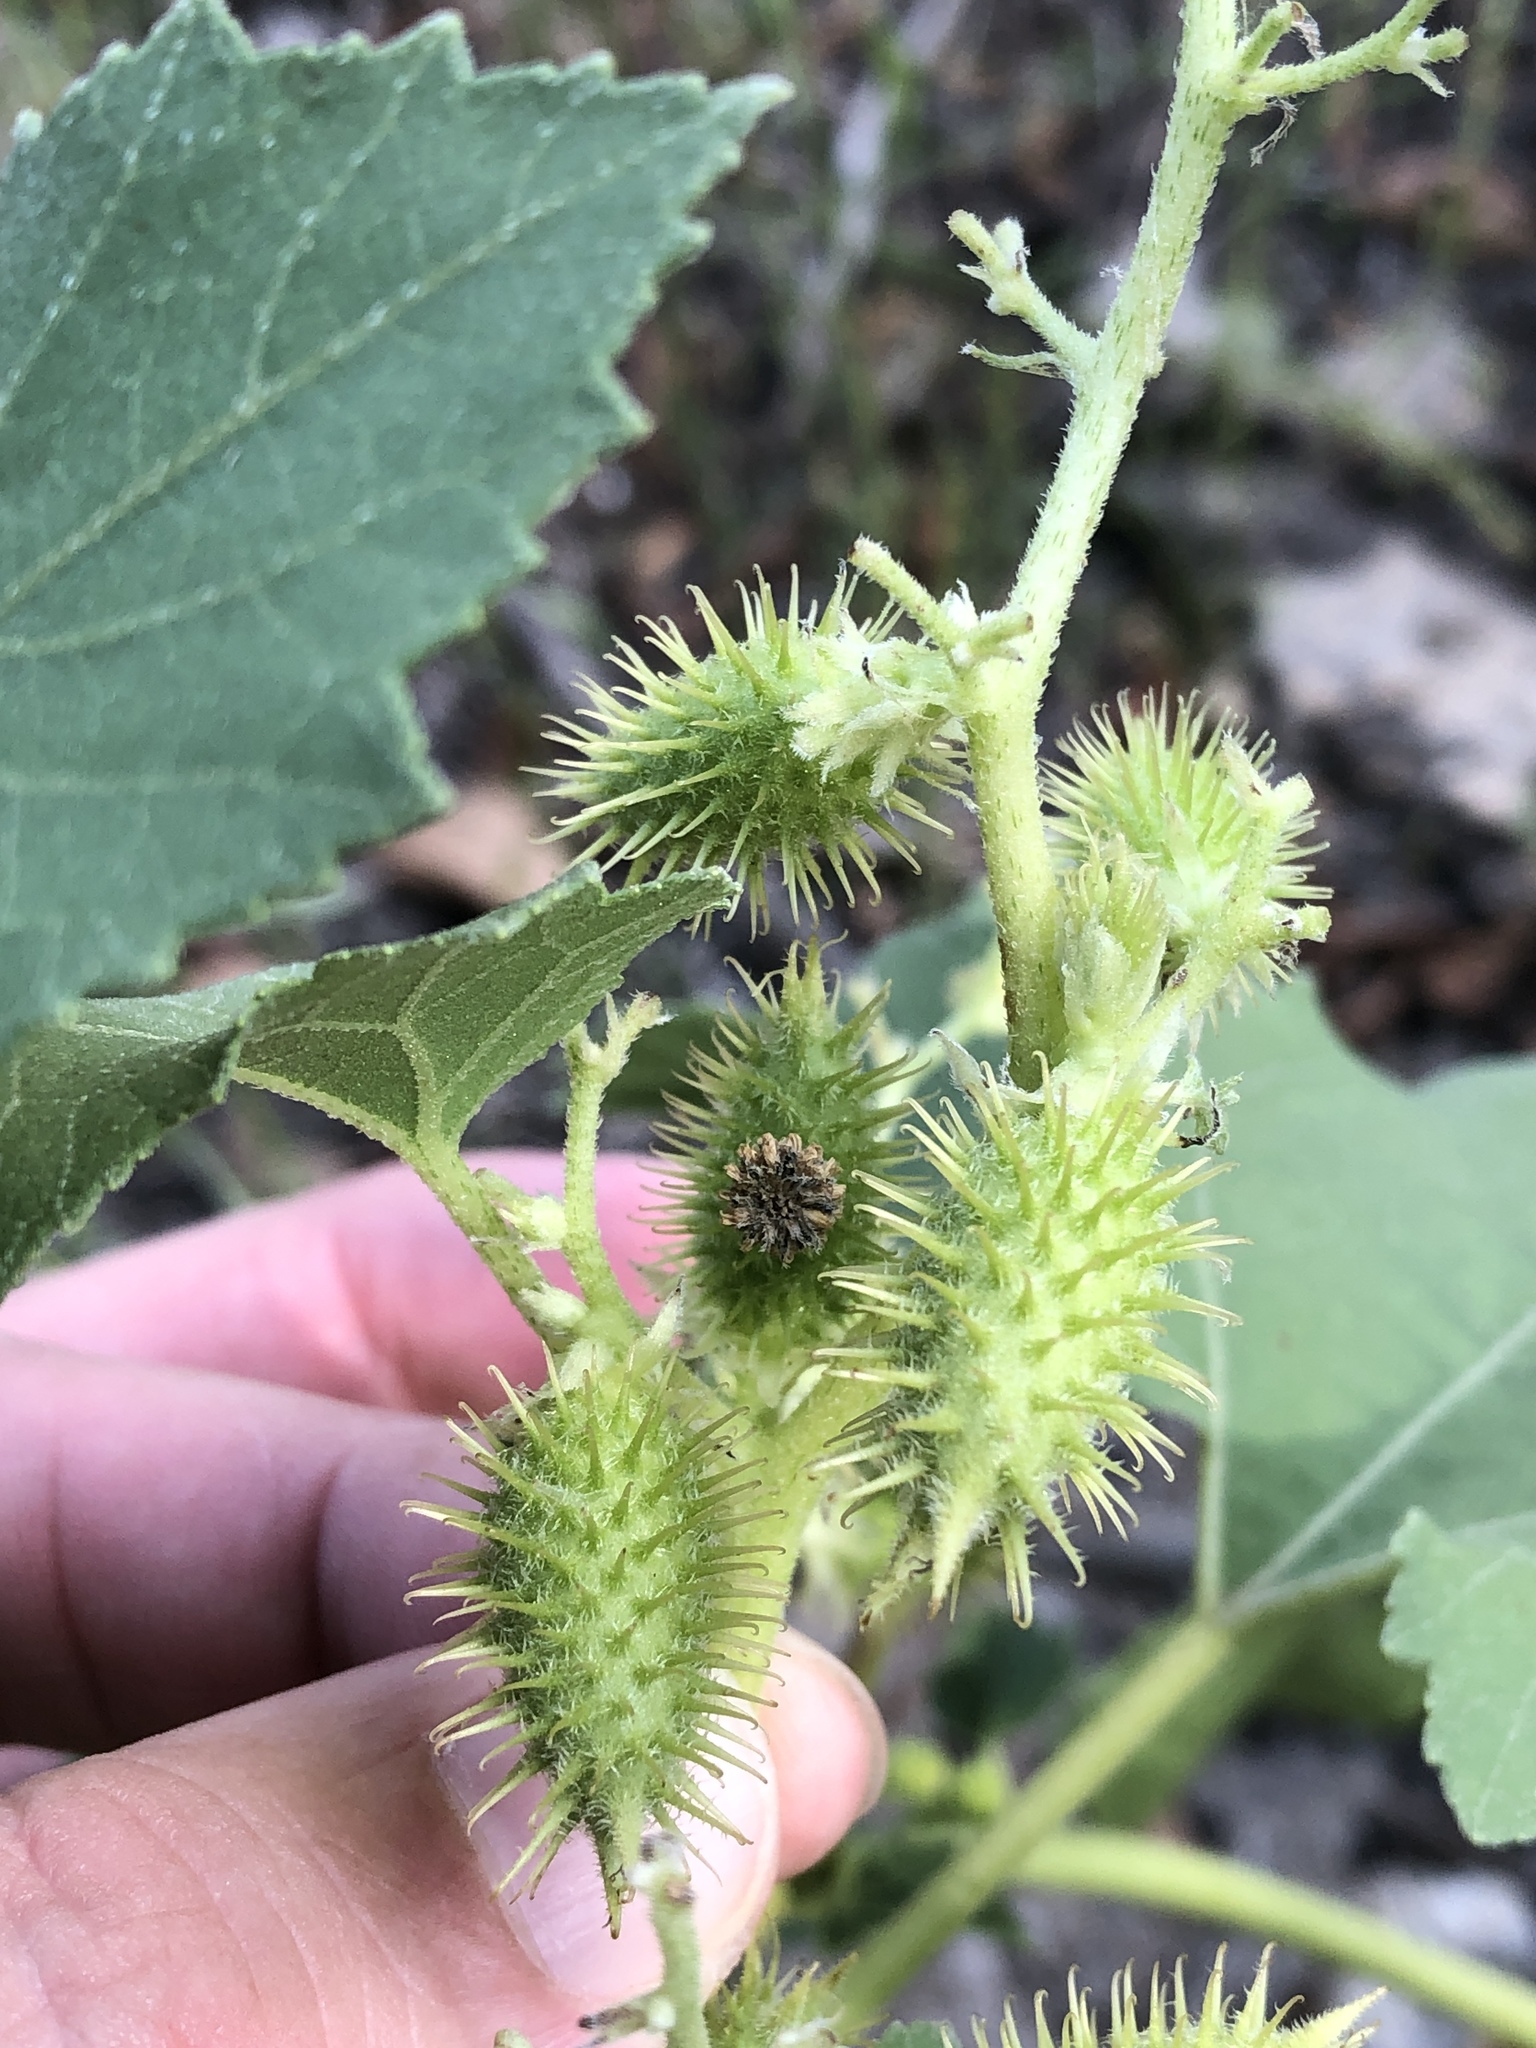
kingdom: Plantae
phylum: Tracheophyta
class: Magnoliopsida
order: Asterales
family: Asteraceae
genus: Xanthium
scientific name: Xanthium strumarium
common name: Rough cocklebur
